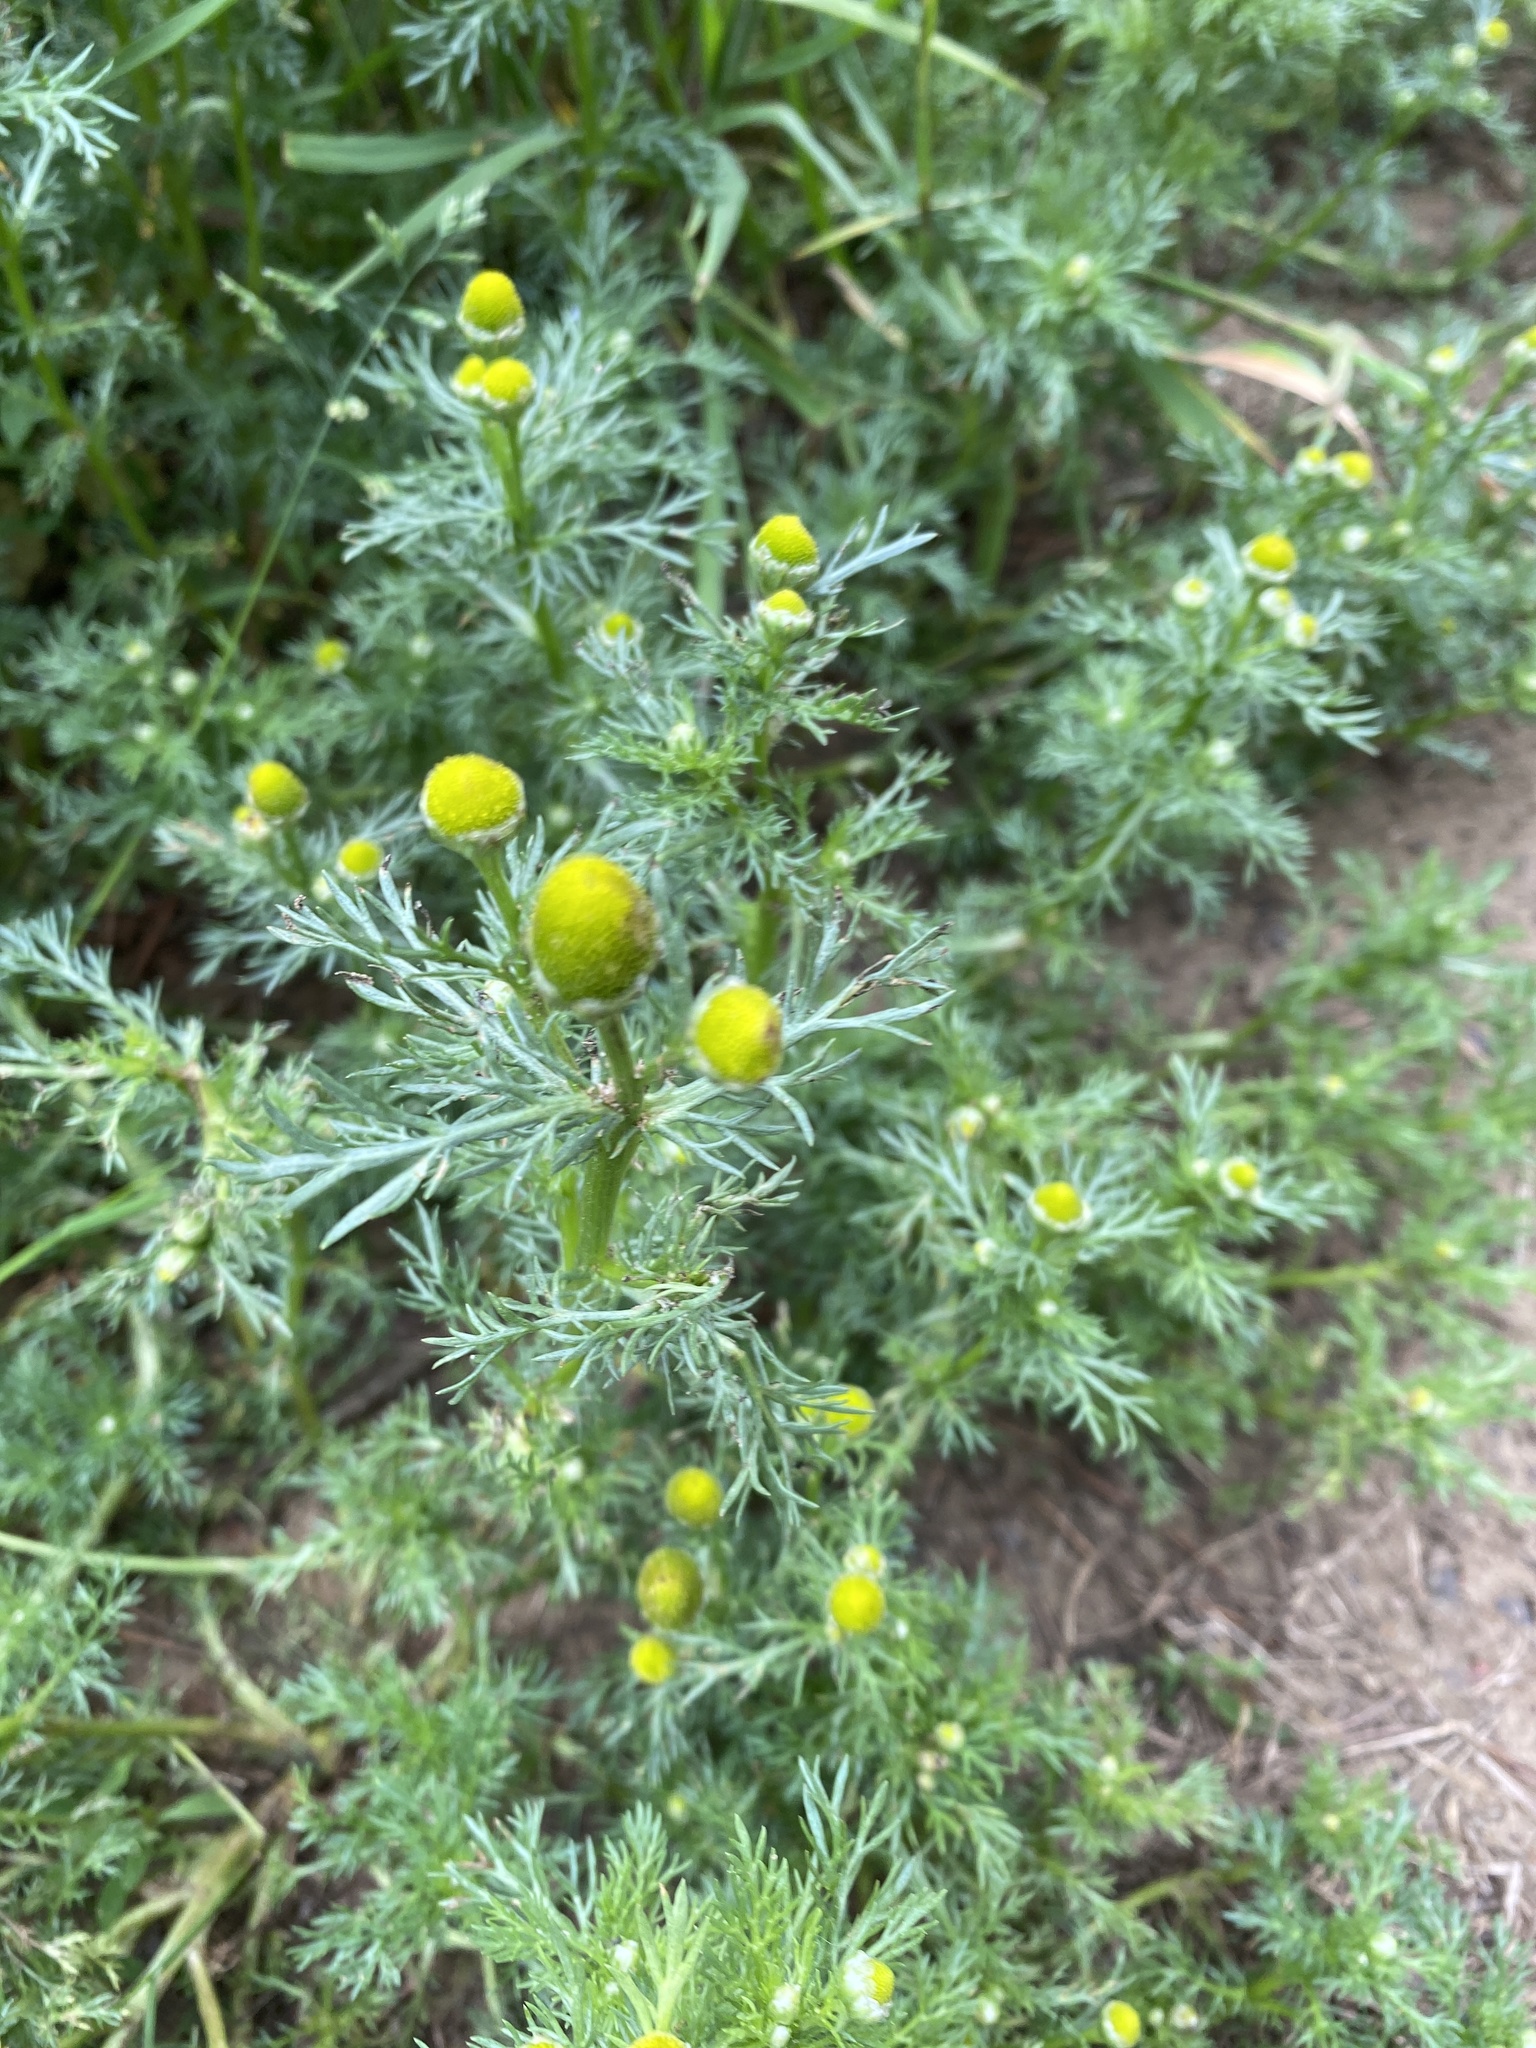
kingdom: Plantae
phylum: Tracheophyta
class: Magnoliopsida
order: Asterales
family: Asteraceae
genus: Matricaria
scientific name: Matricaria discoidea
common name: Disc mayweed
